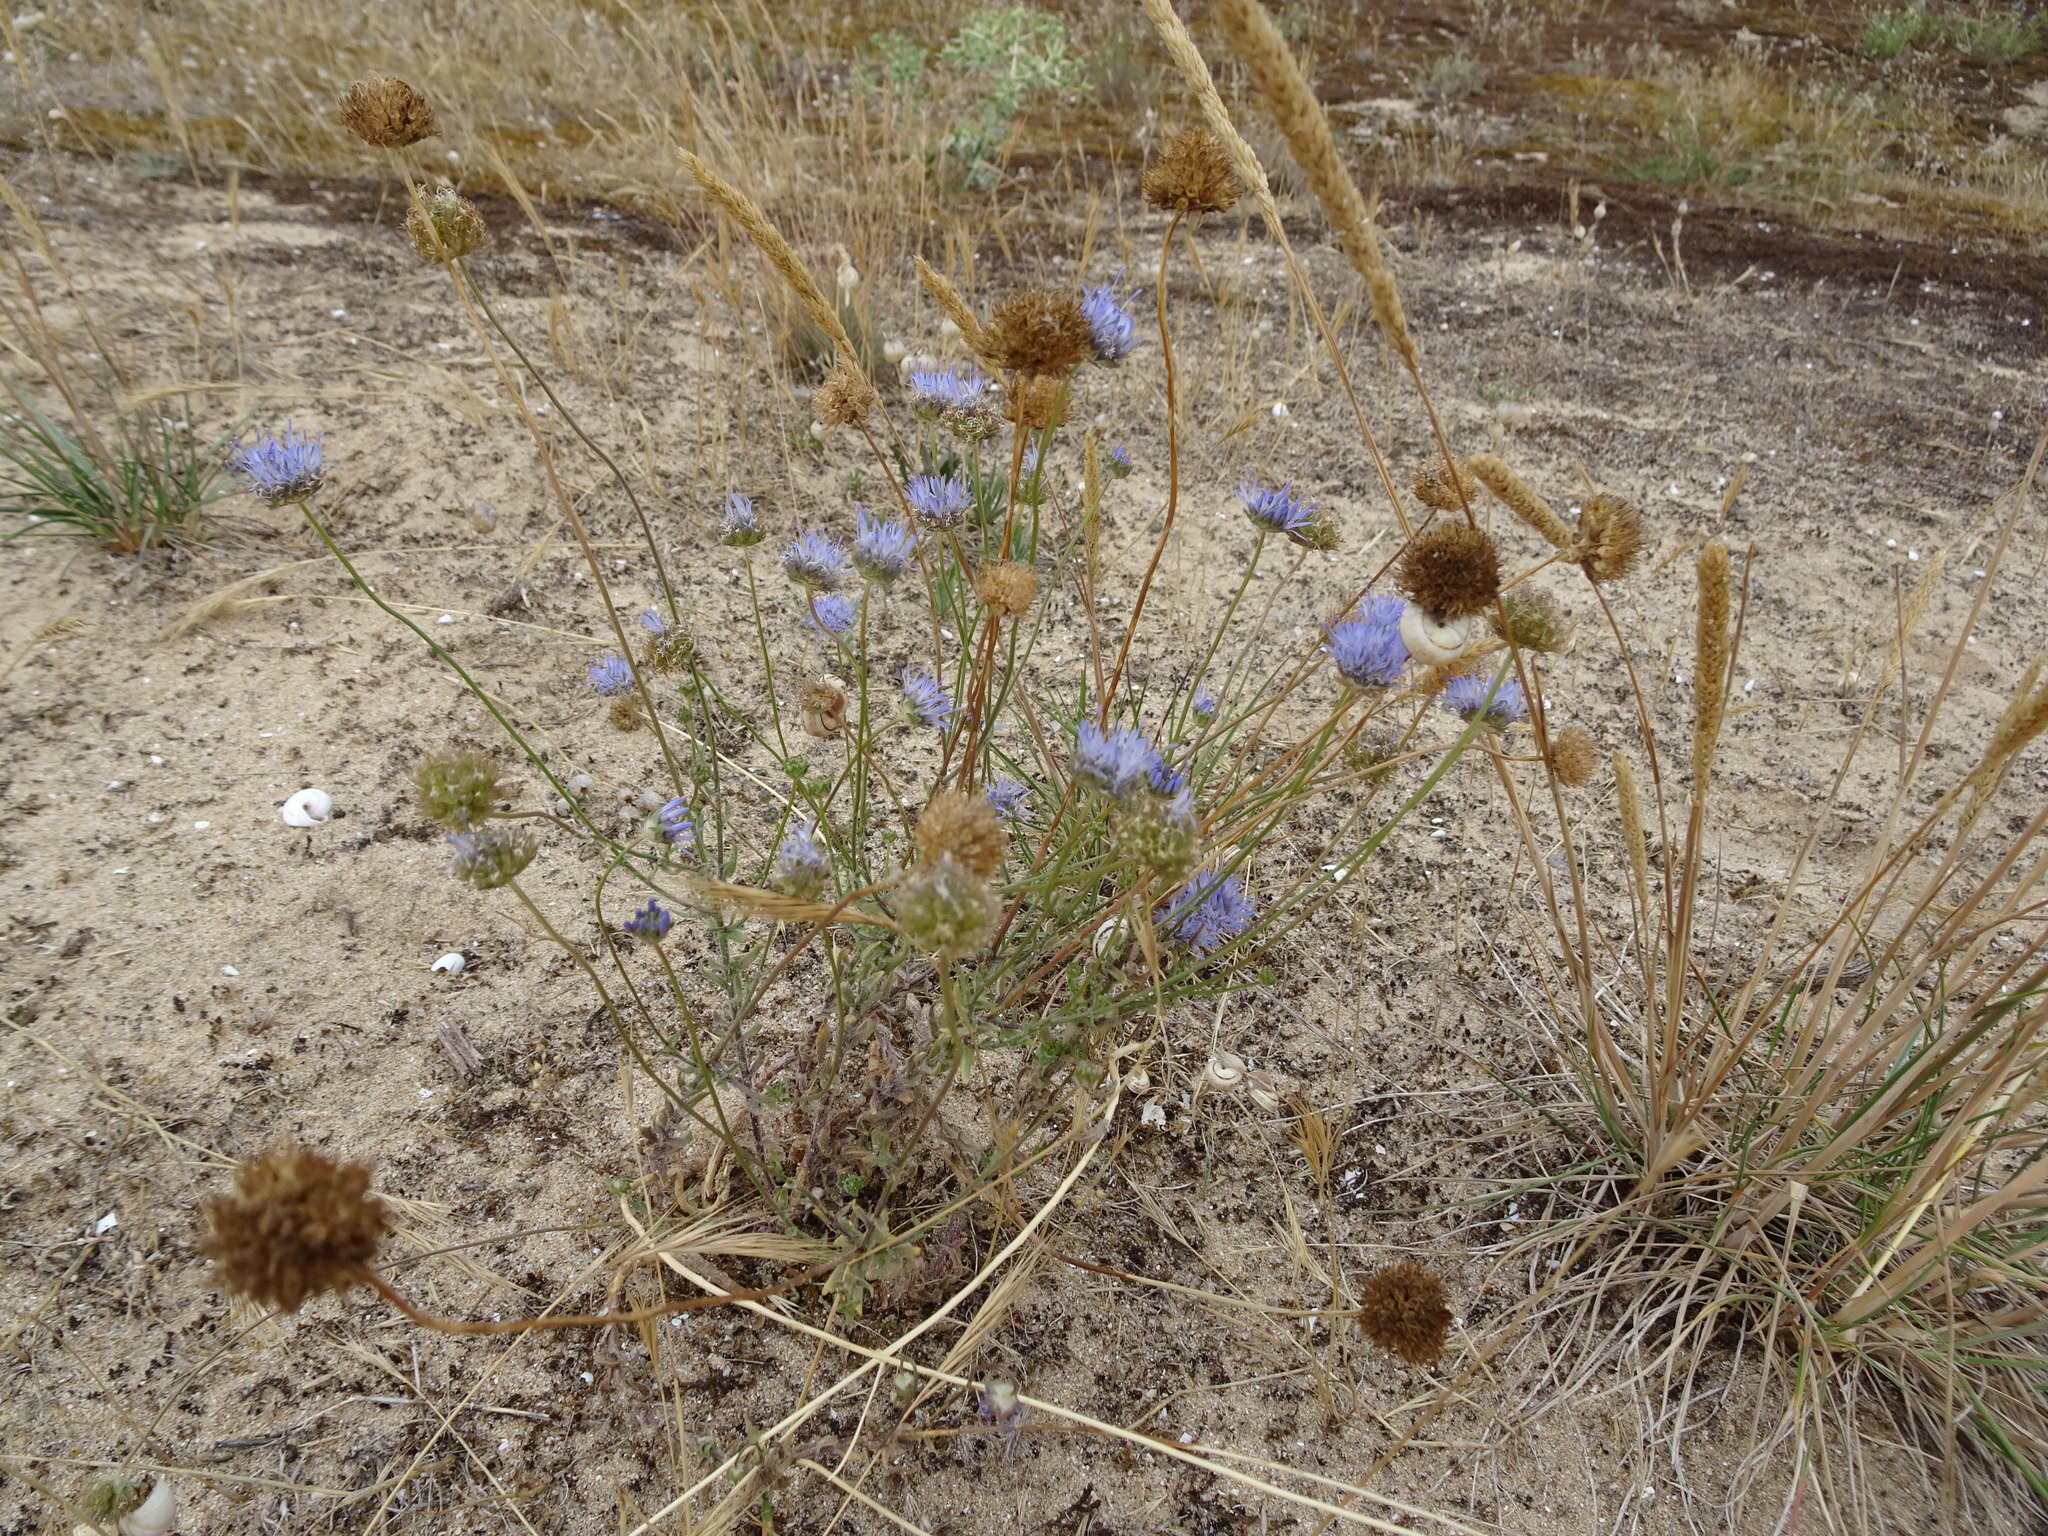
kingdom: Plantae
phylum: Tracheophyta
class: Magnoliopsida
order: Asterales
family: Campanulaceae
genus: Jasione
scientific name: Jasione montana
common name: Sheep's-bit
